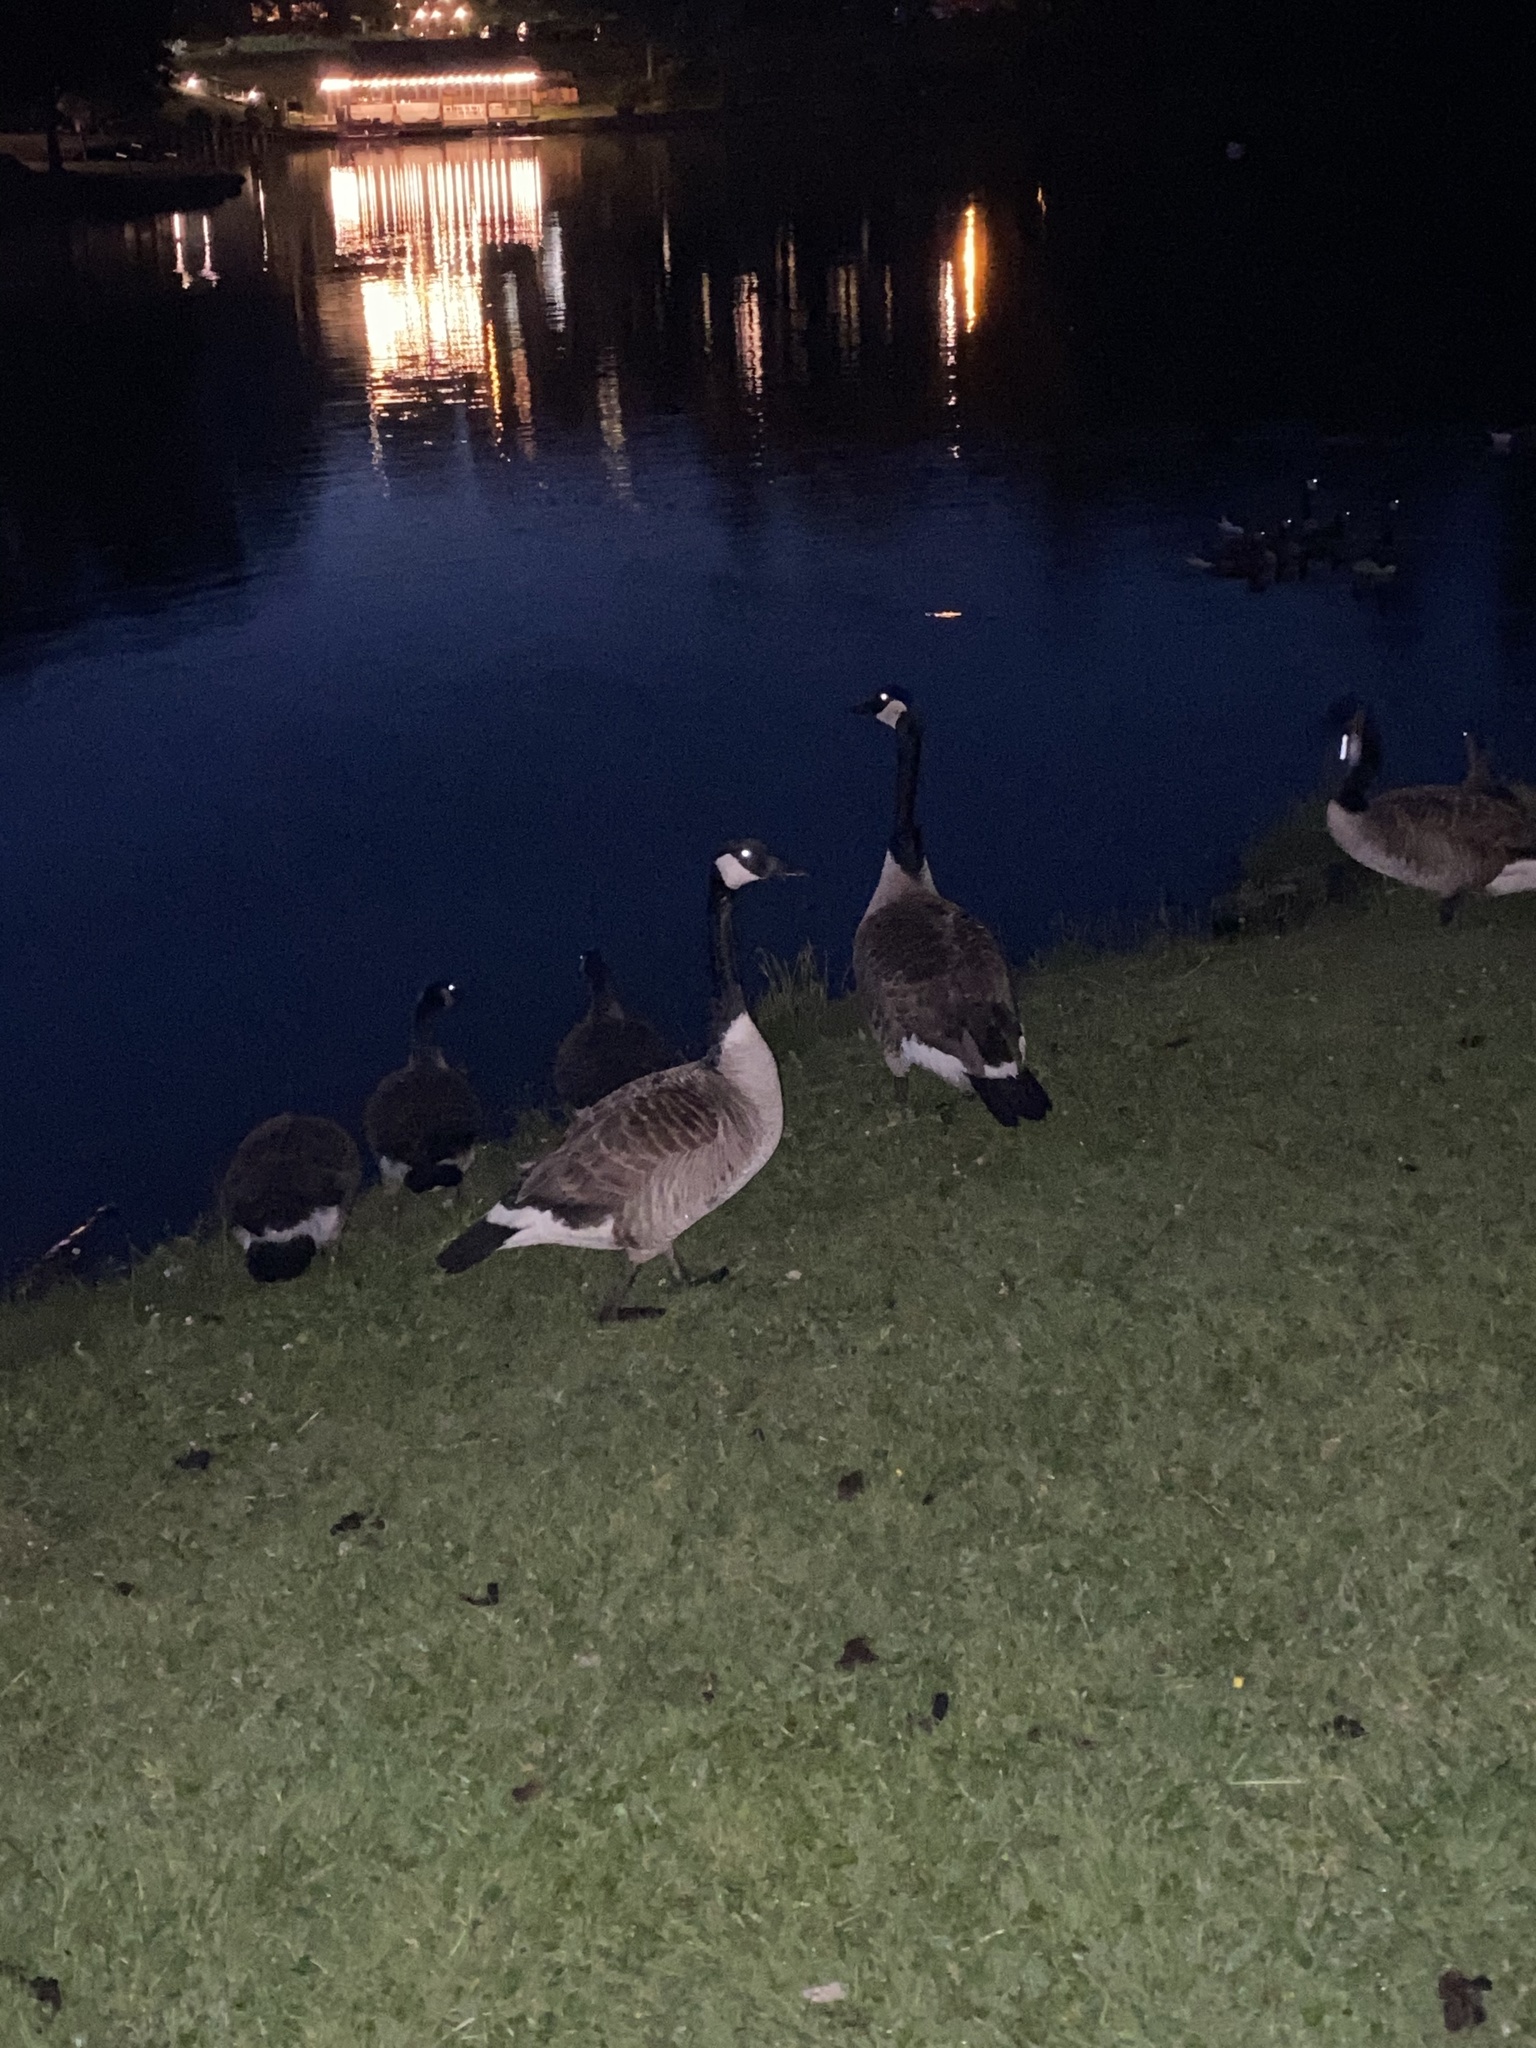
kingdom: Animalia
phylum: Chordata
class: Aves
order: Anseriformes
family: Anatidae
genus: Branta
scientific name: Branta canadensis
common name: Canada goose
